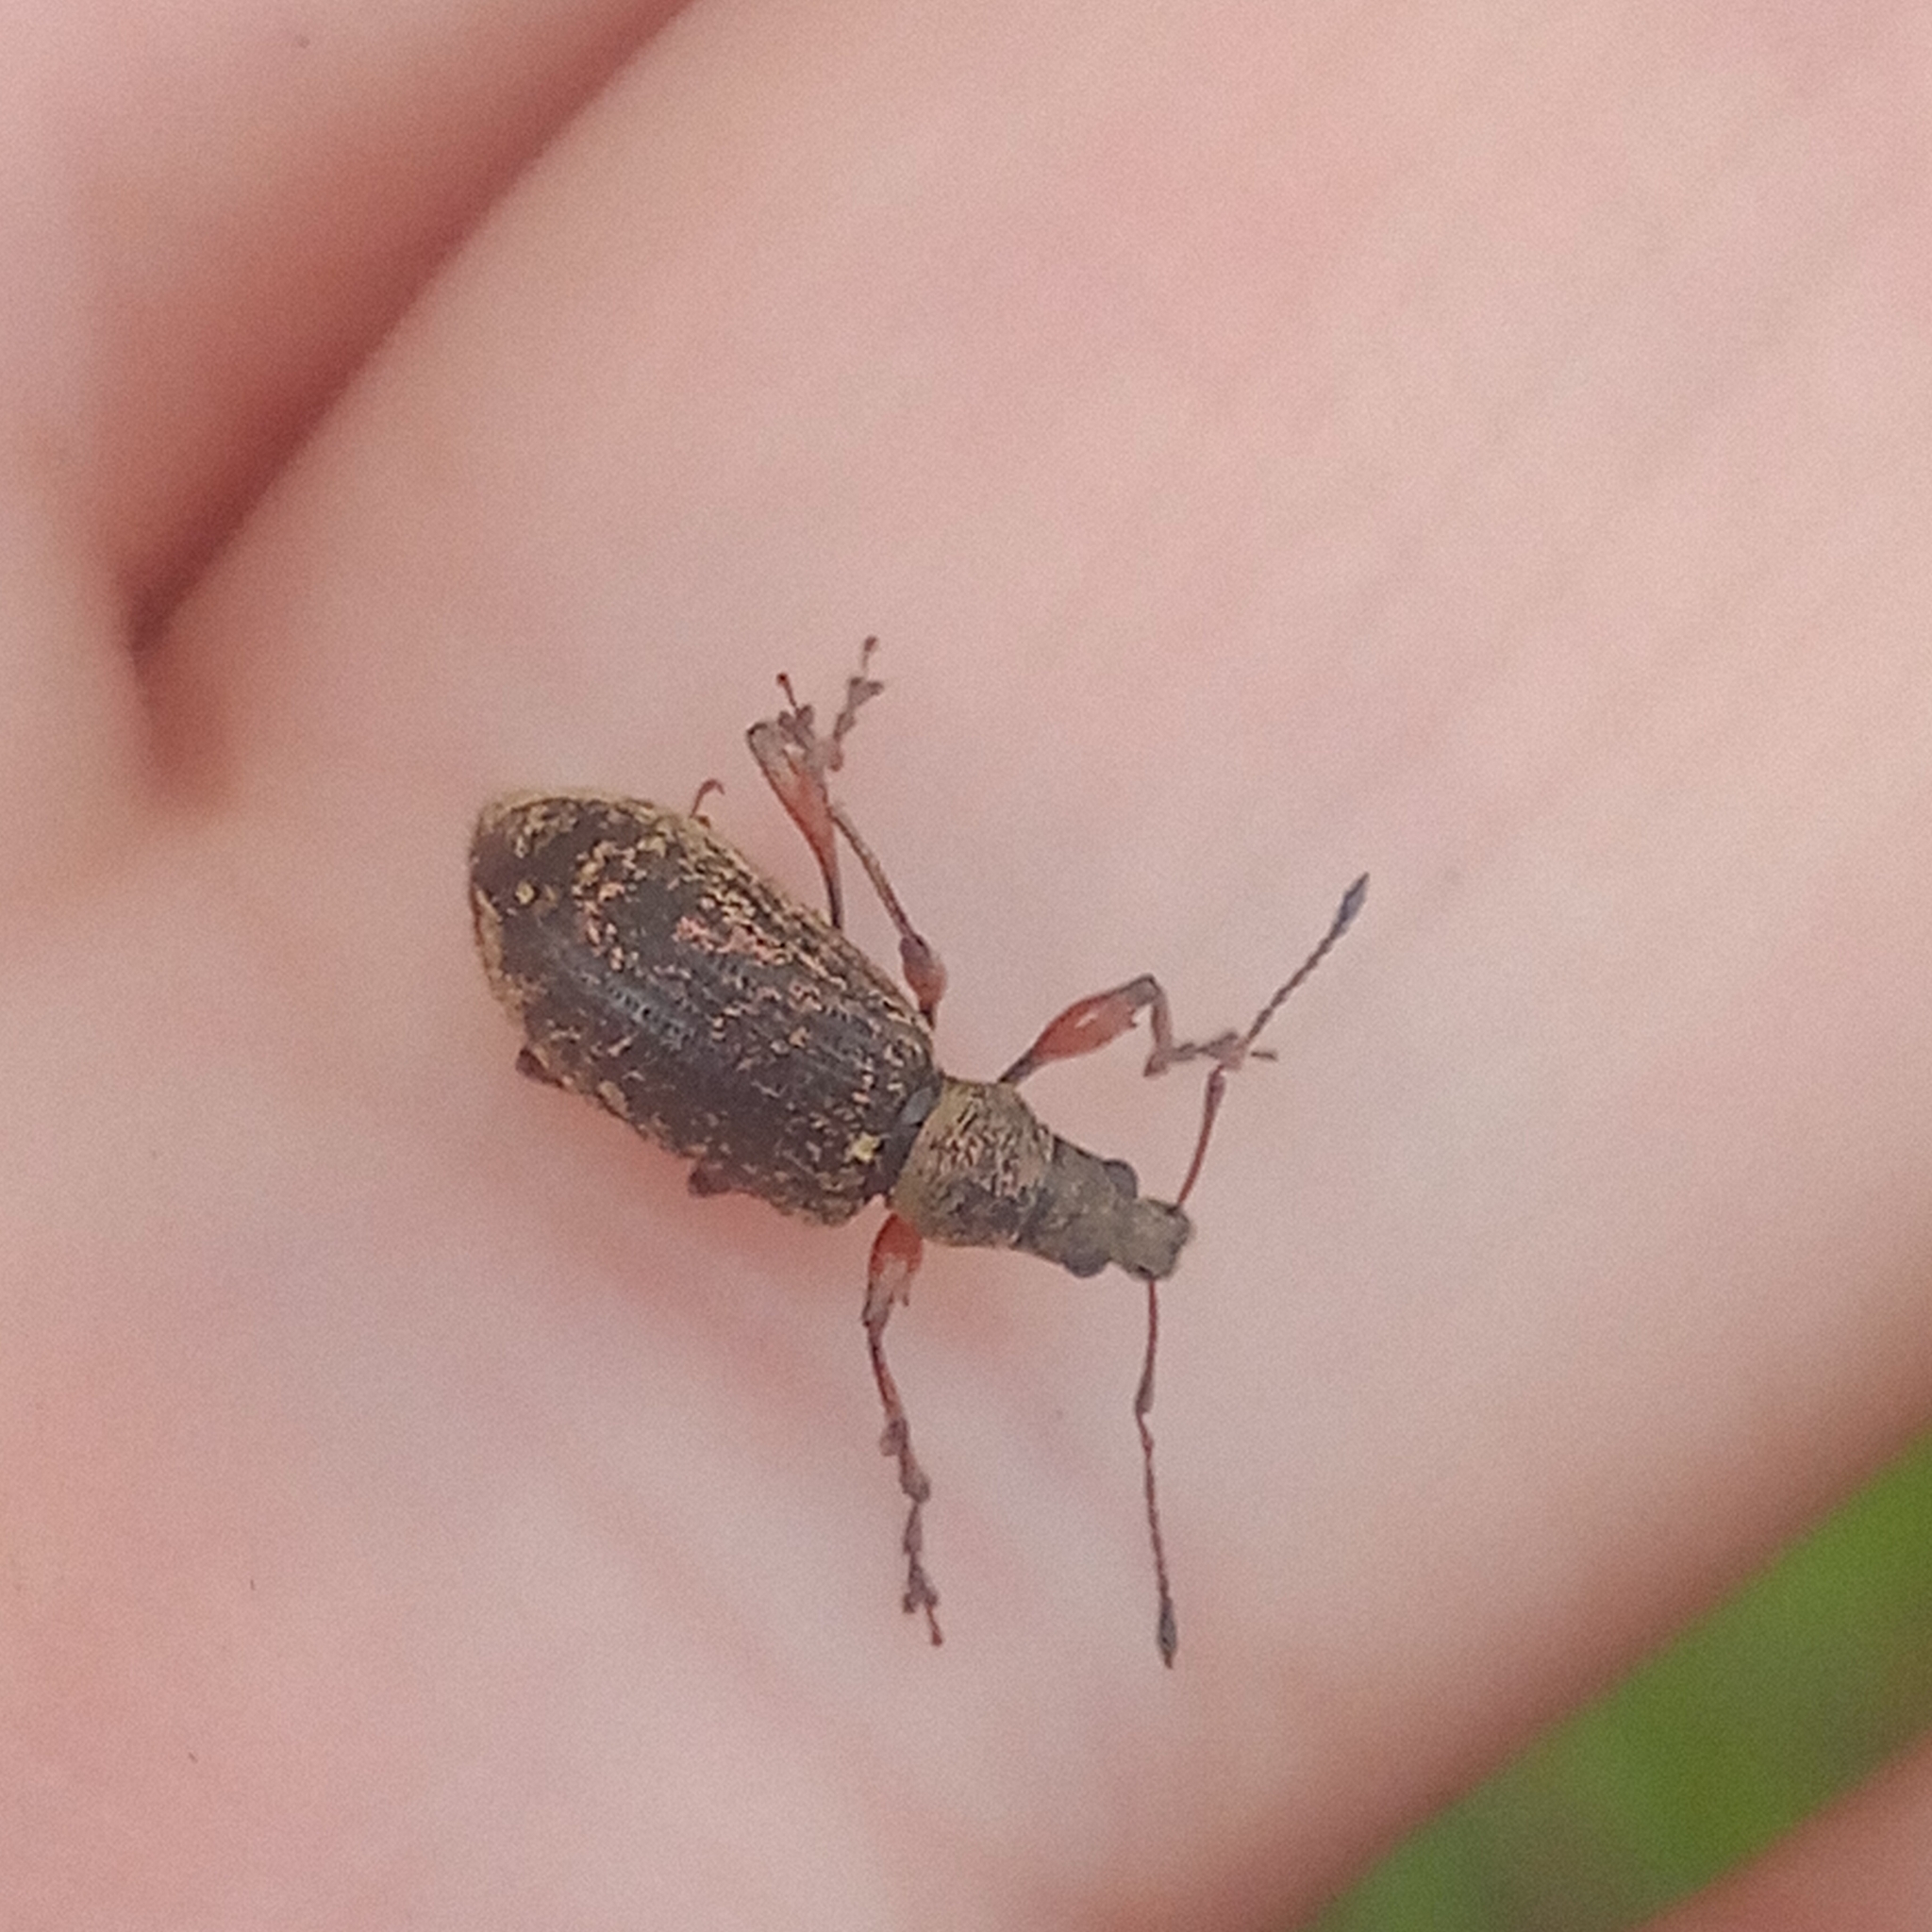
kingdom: Animalia
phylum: Arthropoda
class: Insecta
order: Coleoptera
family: Curculionidae
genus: Phyllobius
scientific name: Phyllobius glaucus
